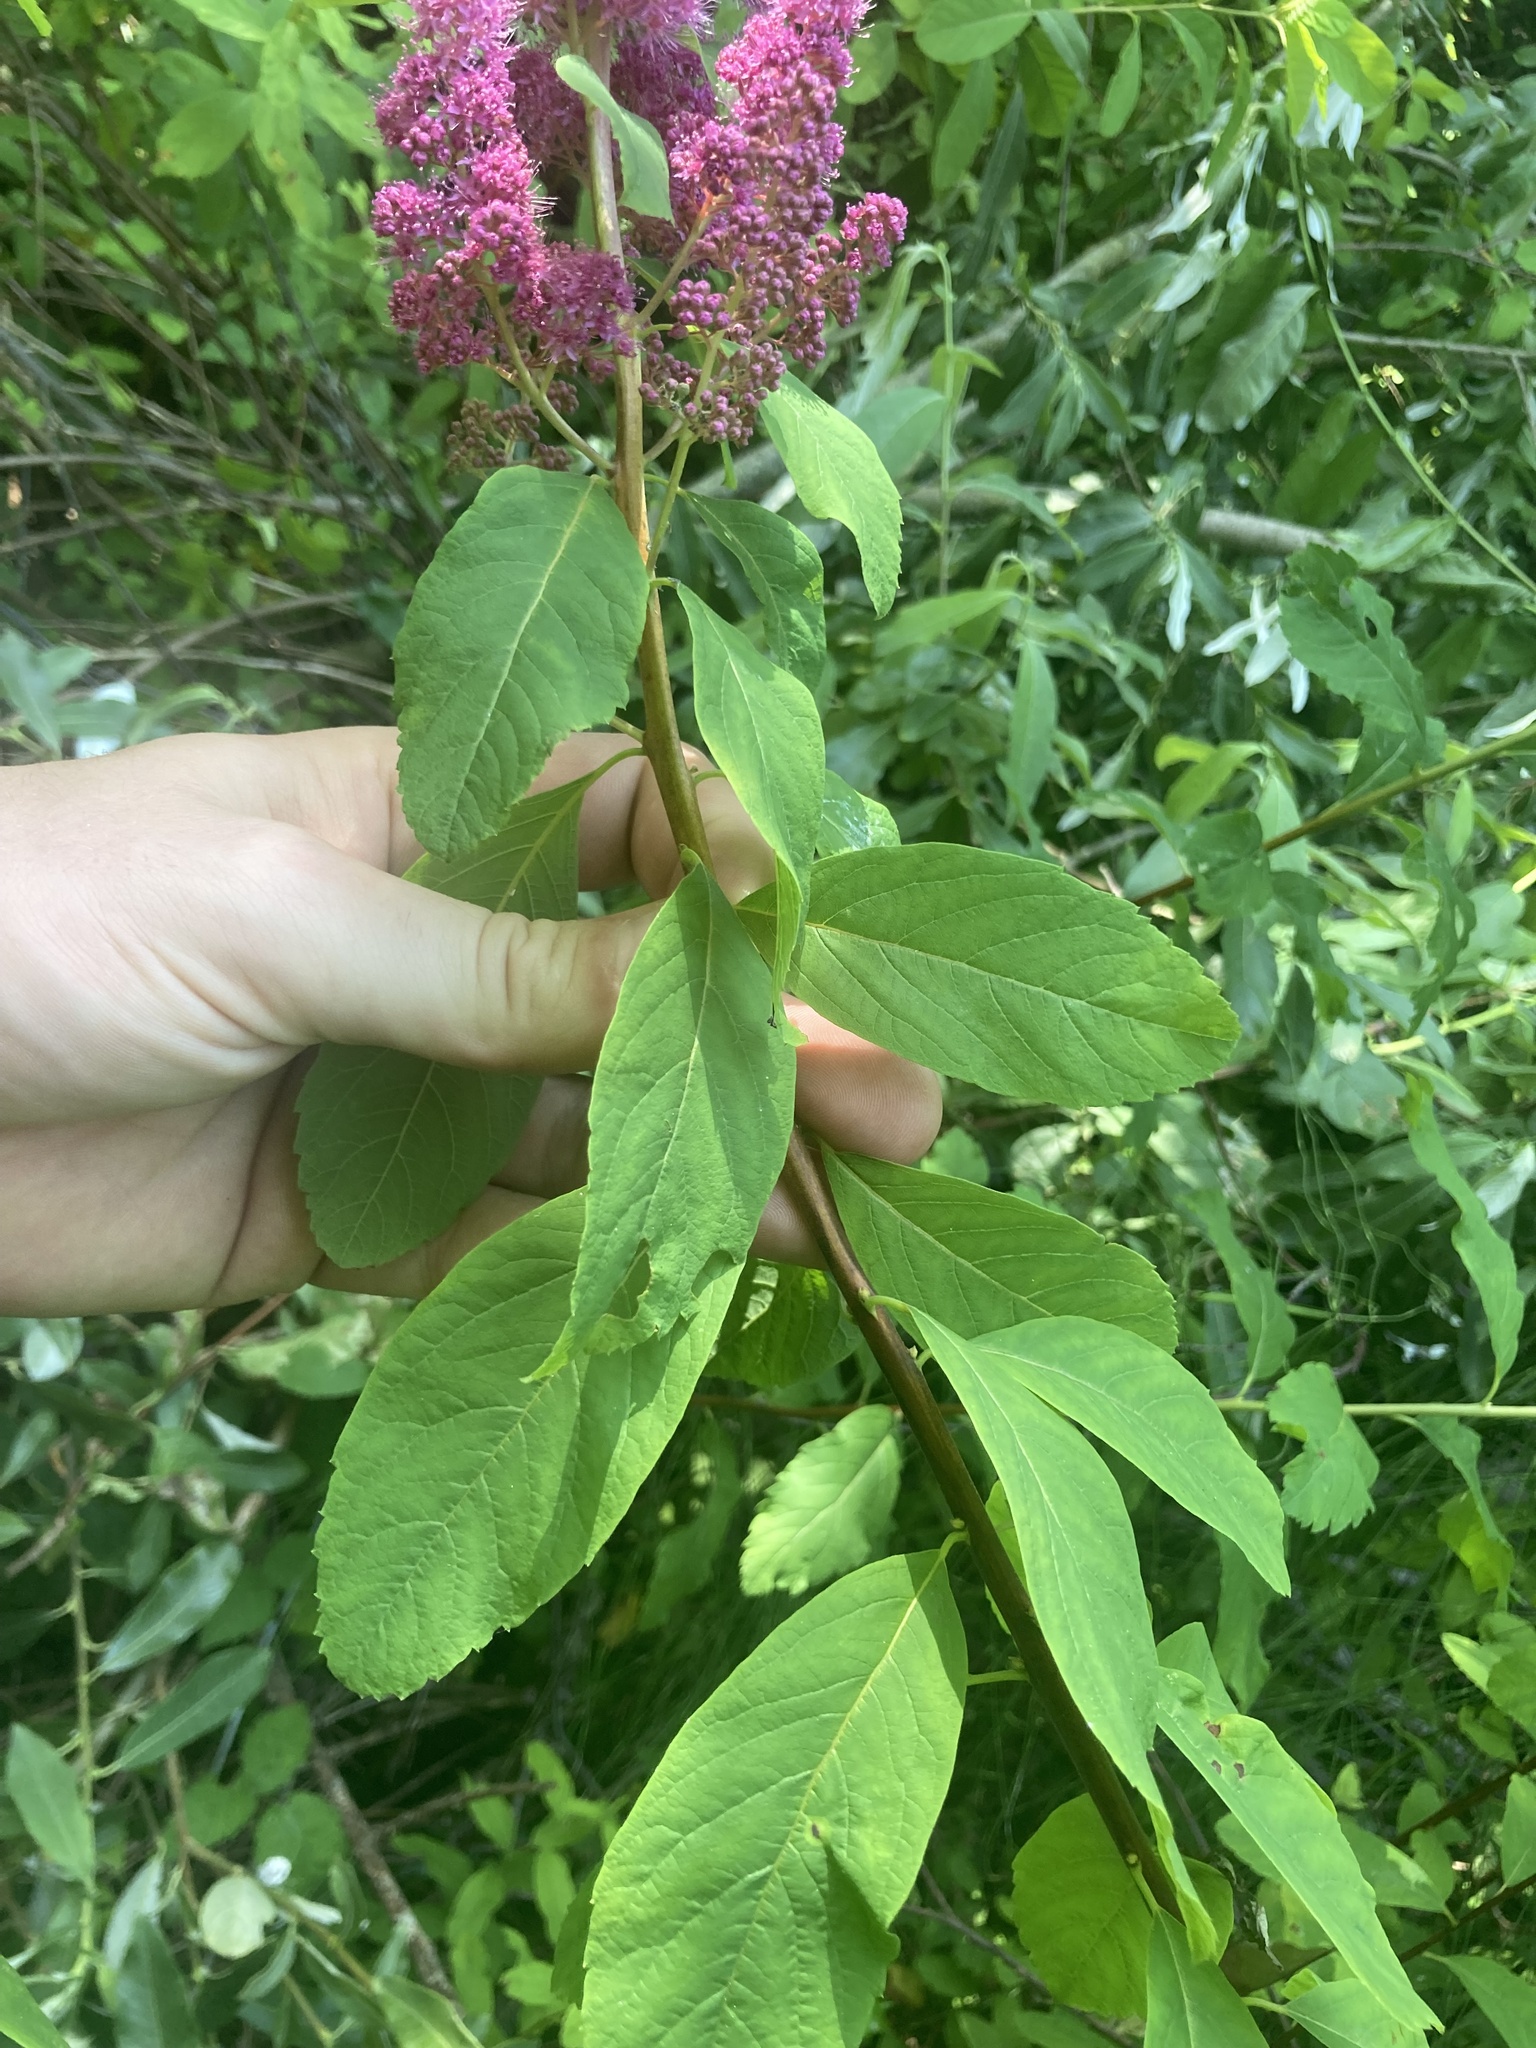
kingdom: Plantae
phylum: Tracheophyta
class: Magnoliopsida
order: Rosales
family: Rosaceae
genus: Spiraea
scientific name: Spiraea douglasii
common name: Steeplebush
